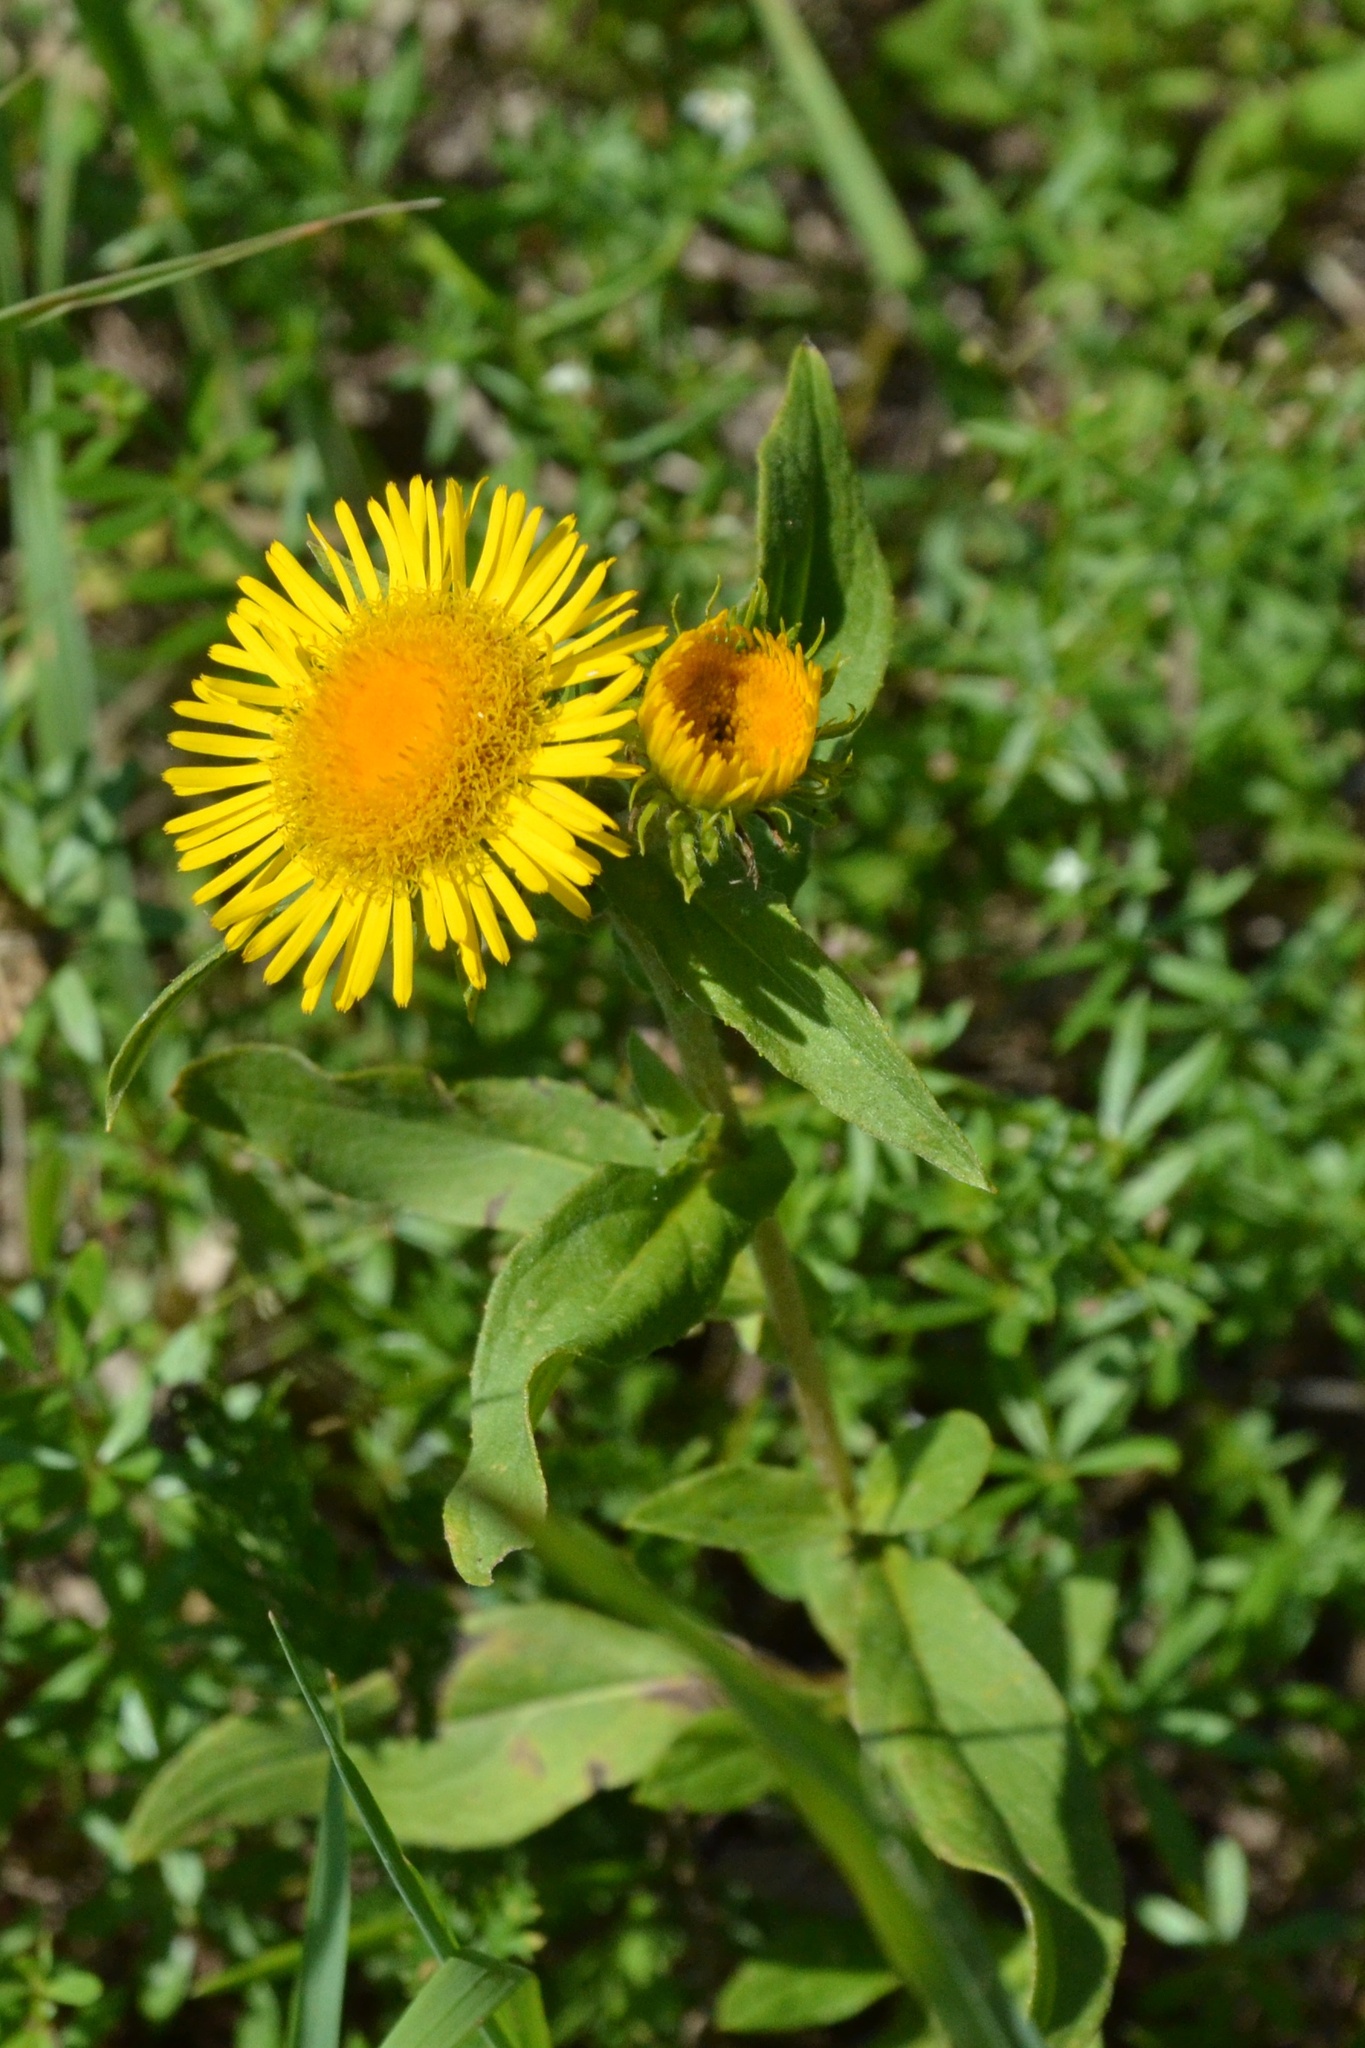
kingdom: Plantae
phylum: Tracheophyta
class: Magnoliopsida
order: Asterales
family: Asteraceae
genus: Pentanema
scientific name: Pentanema britannicum
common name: British elecampane
